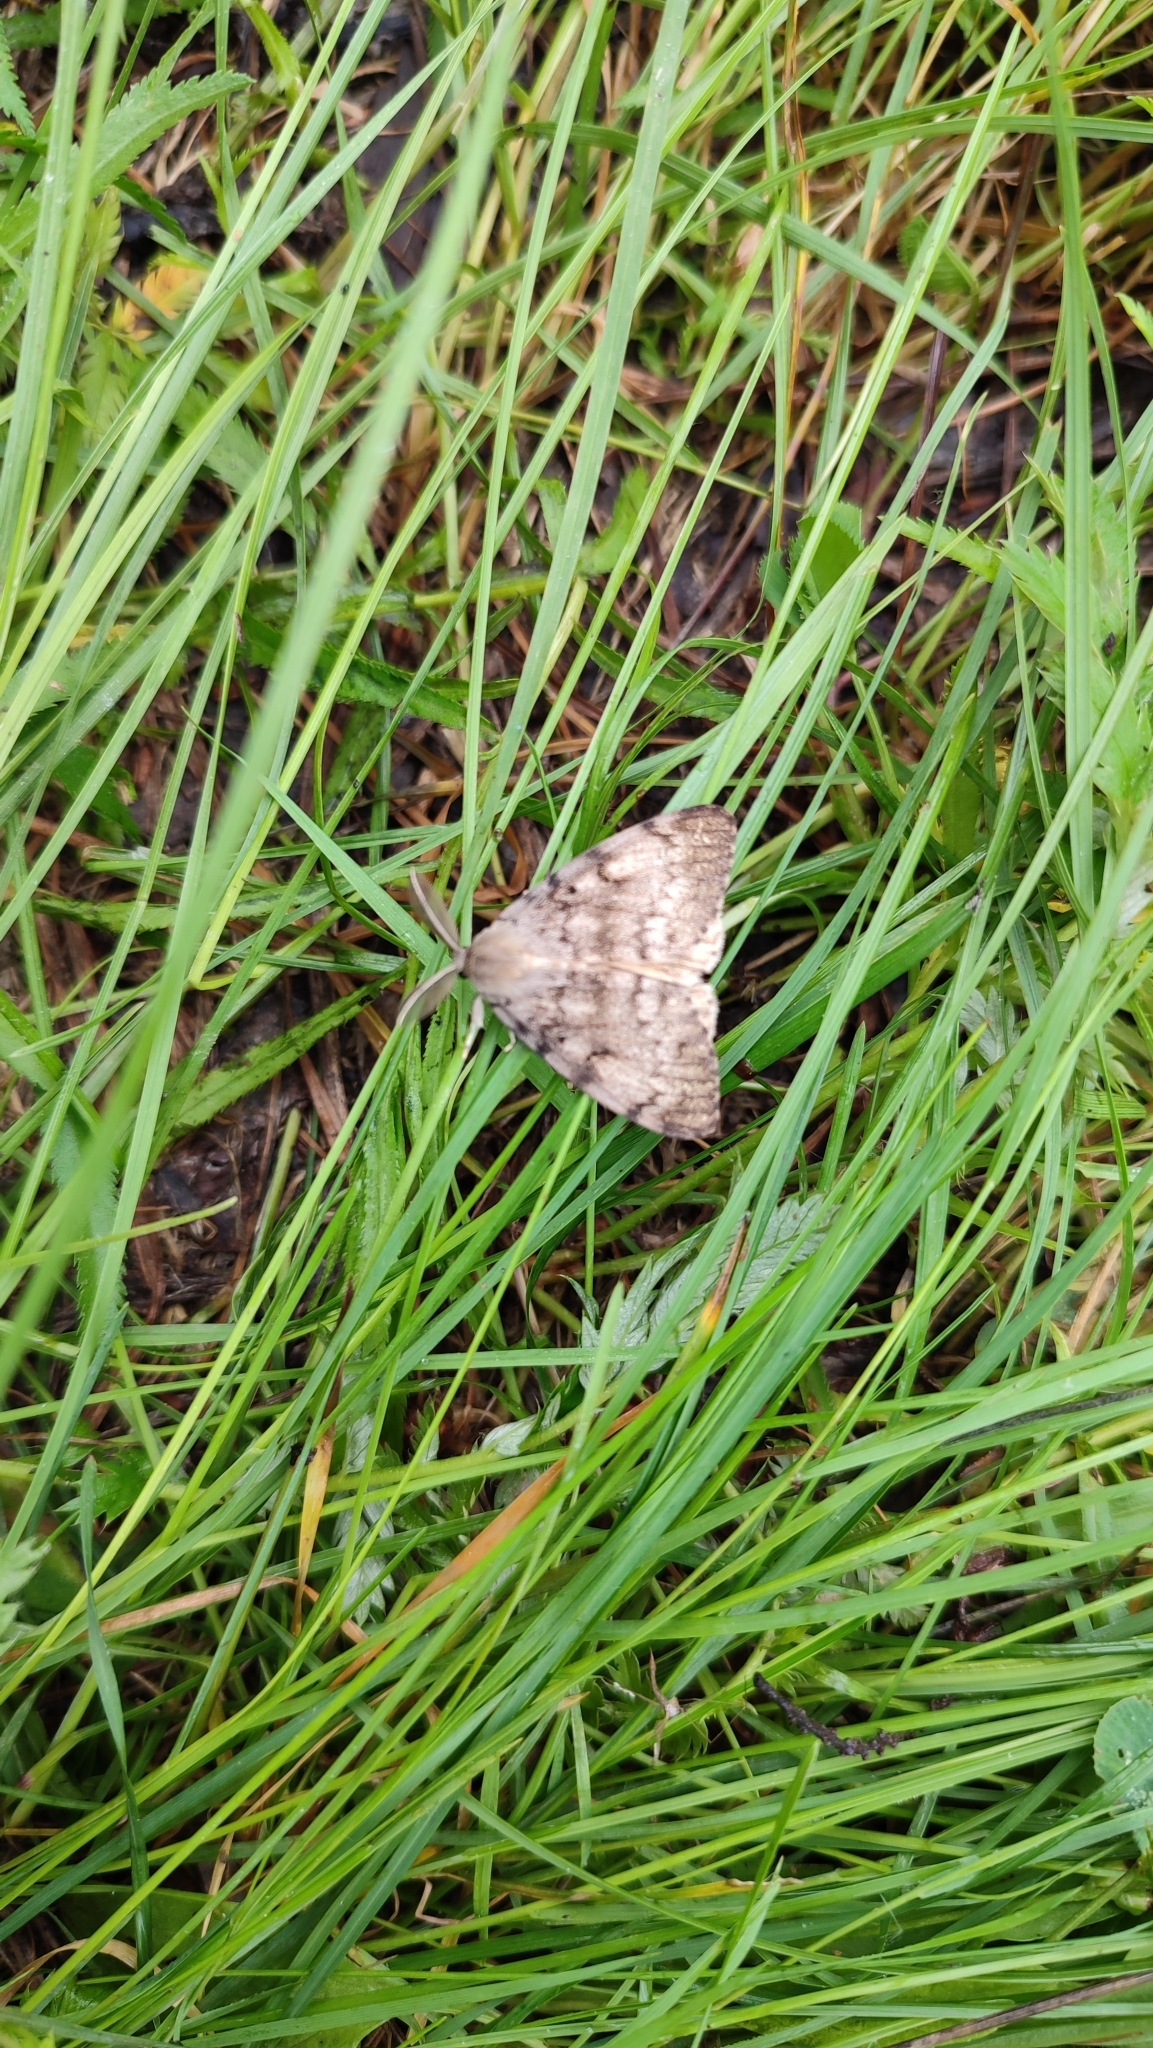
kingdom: Animalia
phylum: Arthropoda
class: Insecta
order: Lepidoptera
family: Erebidae
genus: Lymantria
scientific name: Lymantria dispar
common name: Gypsy moth
